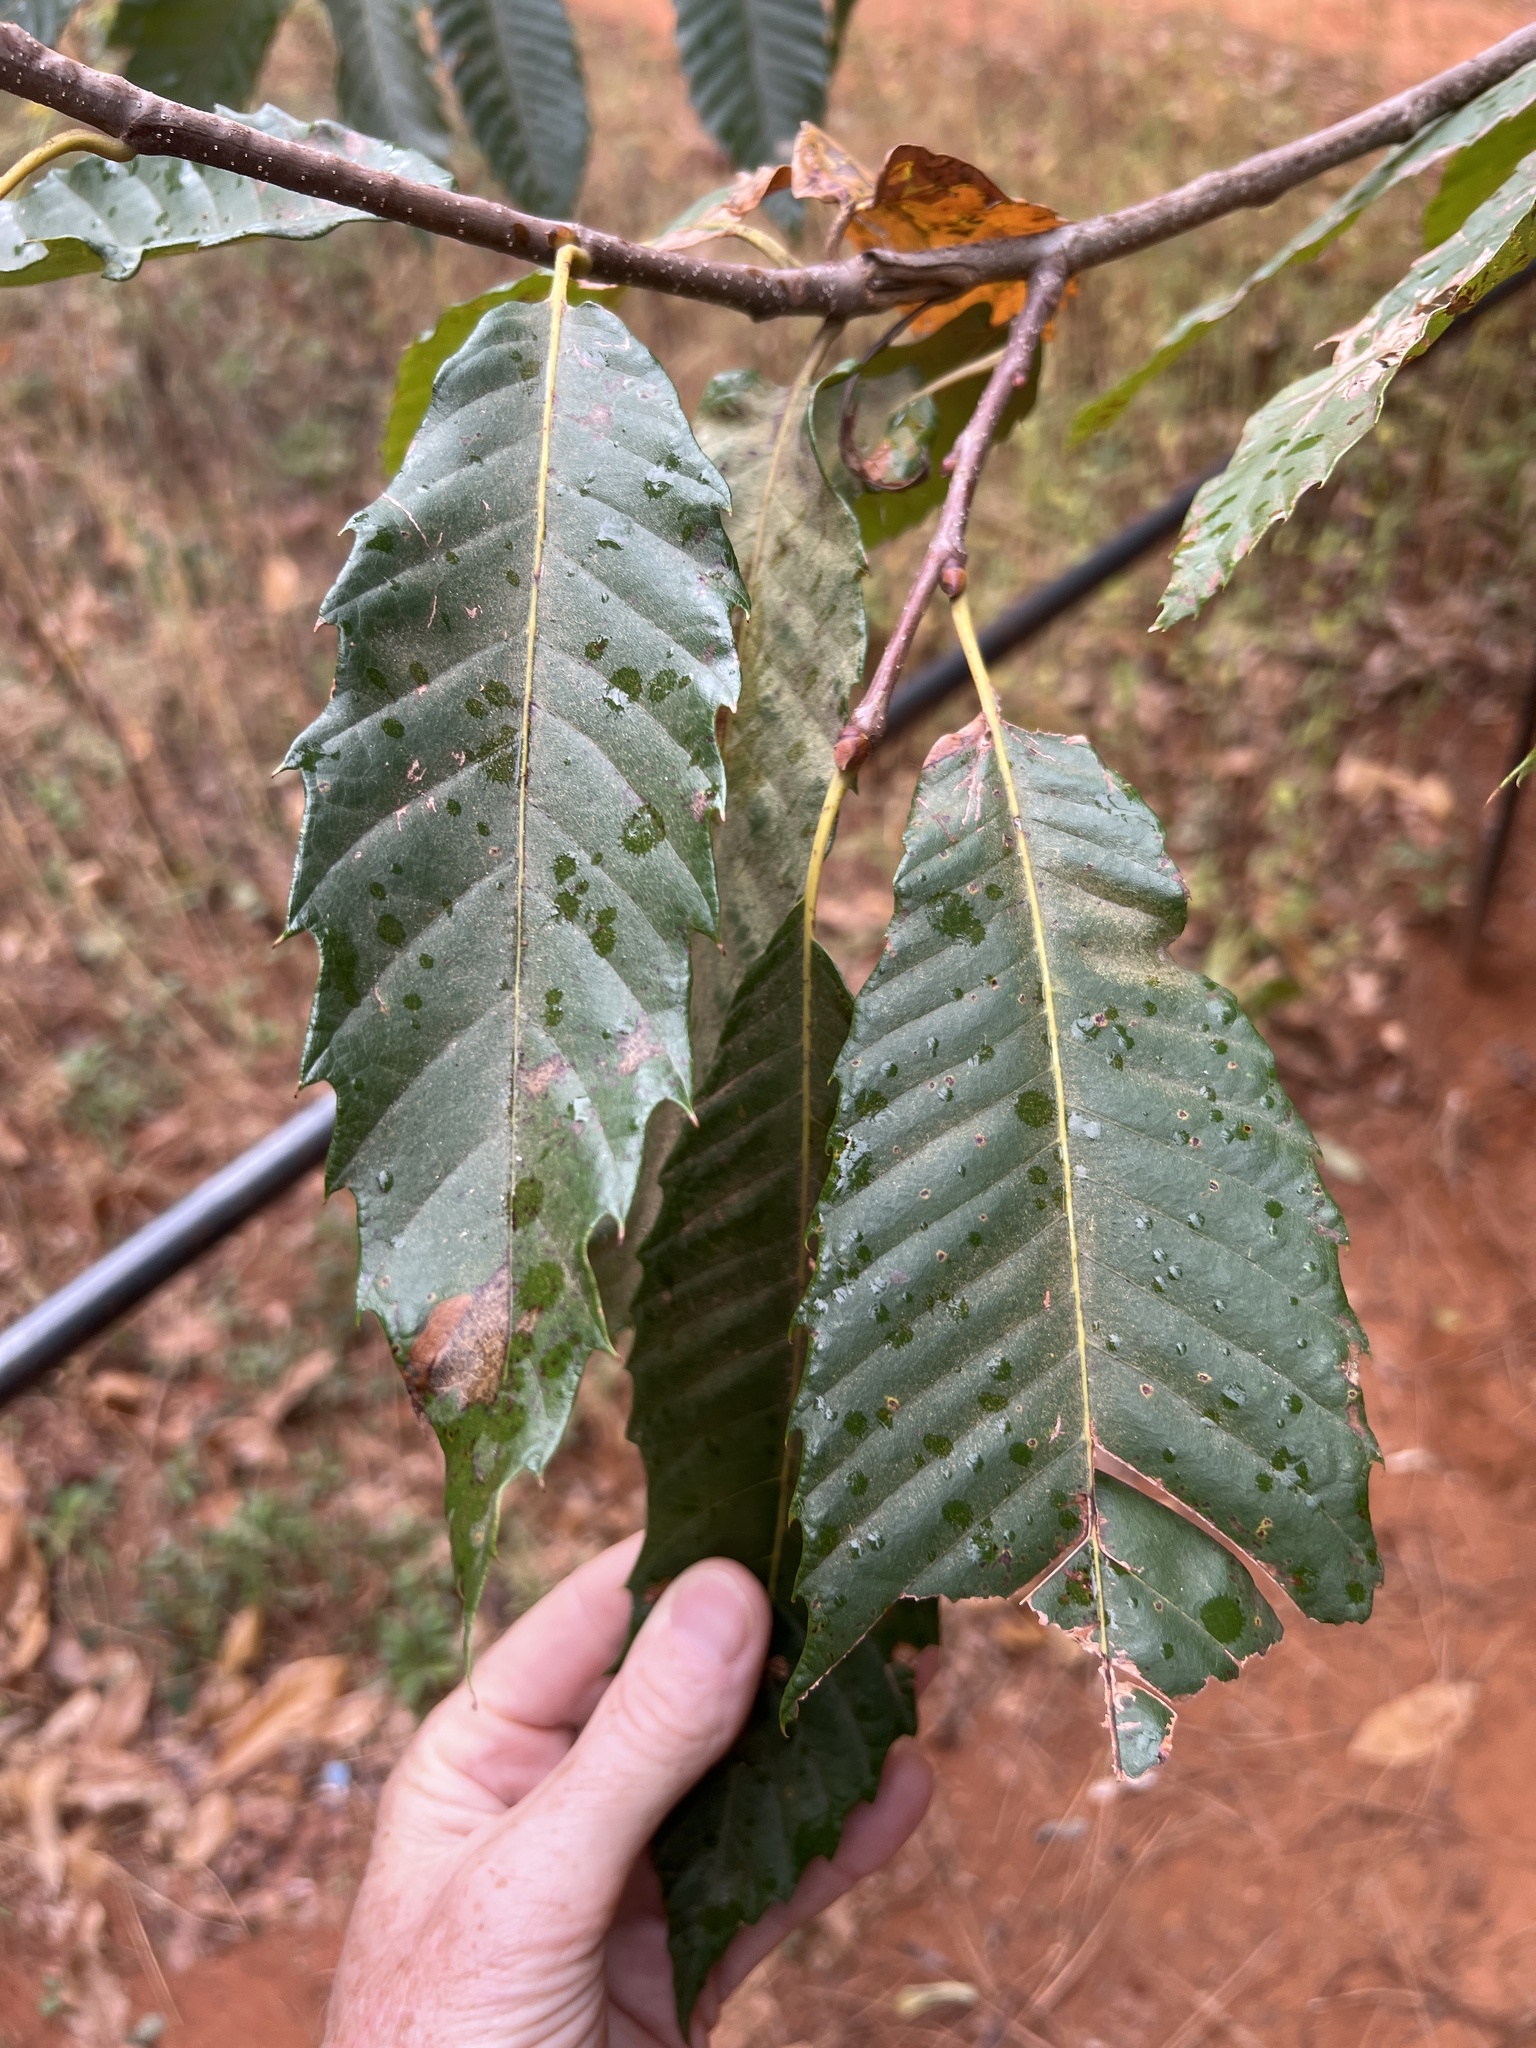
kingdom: Plantae
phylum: Tracheophyta
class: Magnoliopsida
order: Fagales
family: Fagaceae
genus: Castanea
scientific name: Castanea sativa
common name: Sweet chestnut
